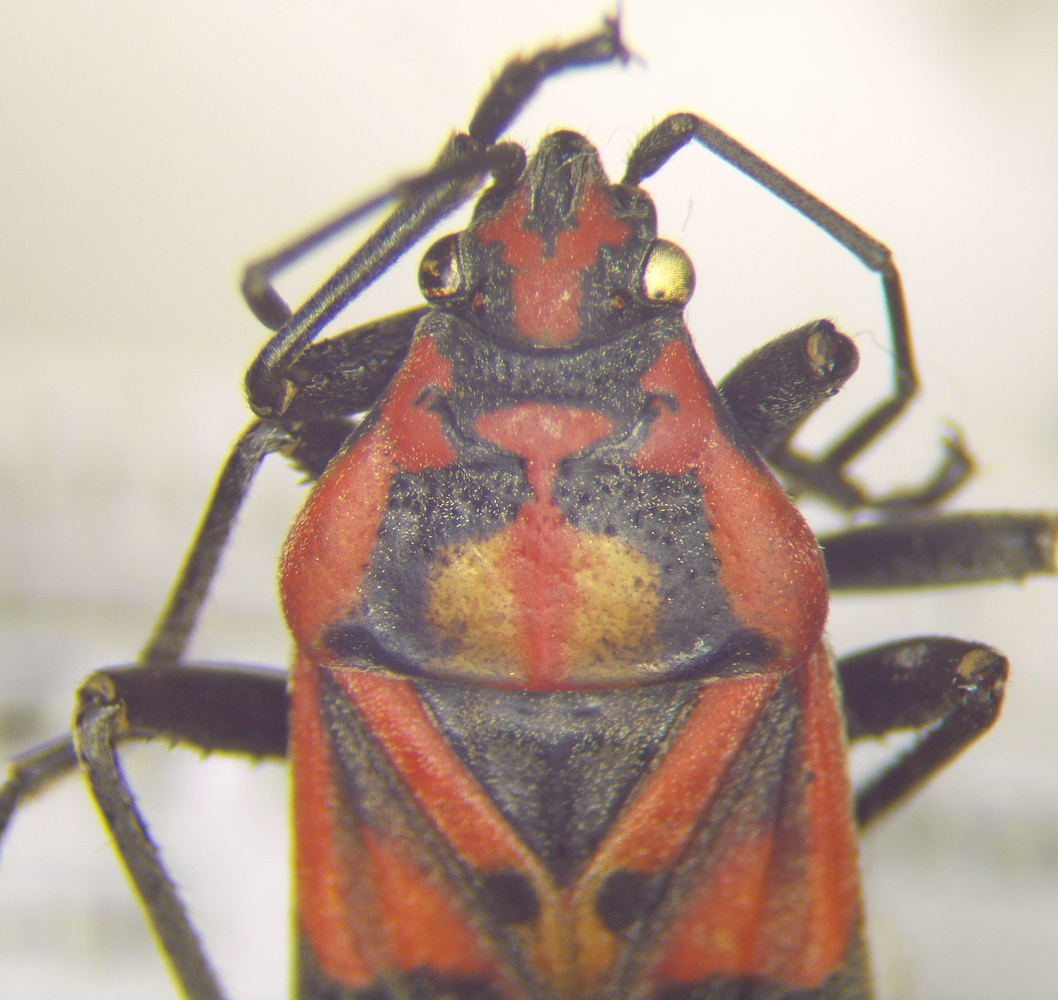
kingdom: Animalia
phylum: Arthropoda
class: Insecta
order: Hemiptera
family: Lygaeidae
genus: Spilostethus
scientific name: Spilostethus pandurus
